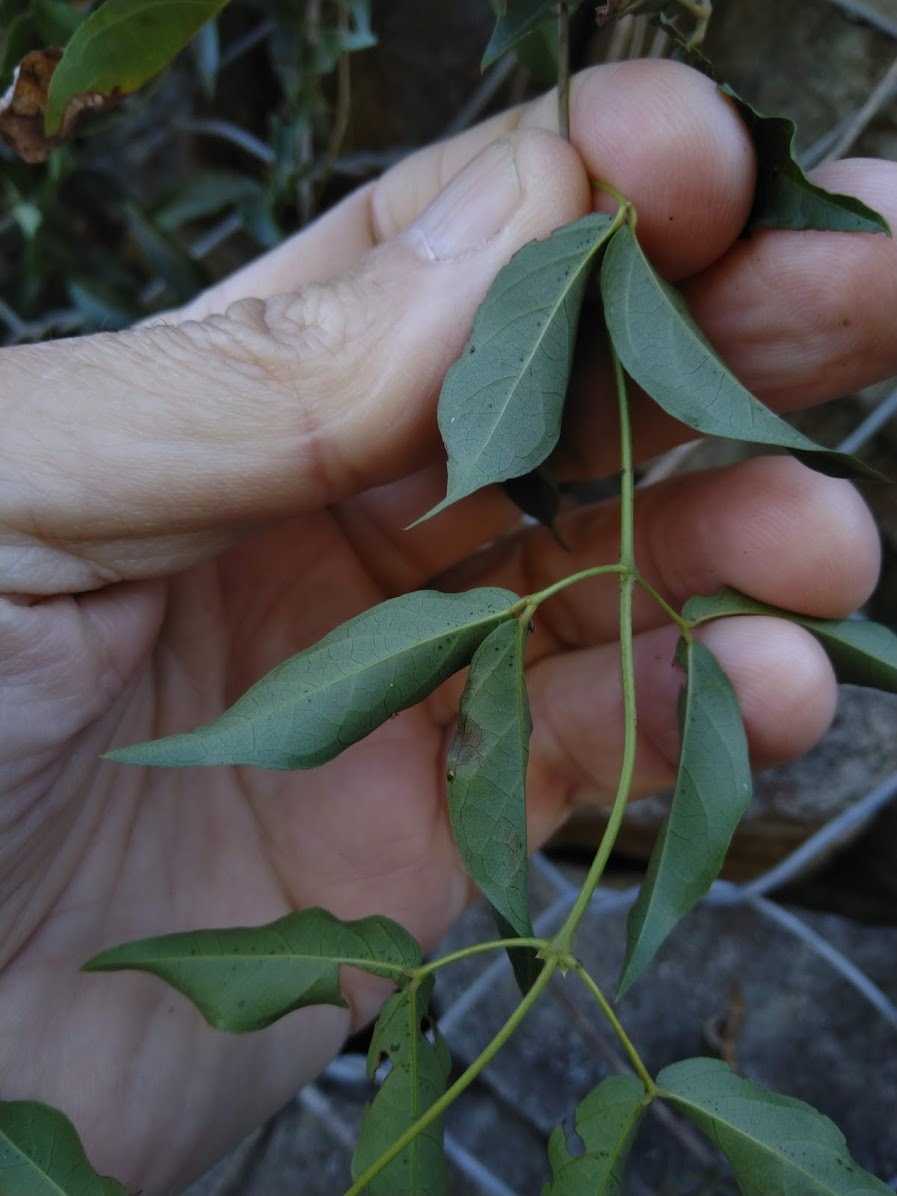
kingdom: Plantae
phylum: Tracheophyta
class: Magnoliopsida
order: Lamiales
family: Bignoniaceae
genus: Dolichandra
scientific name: Dolichandra unguis-cati
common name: Catclaw vine
